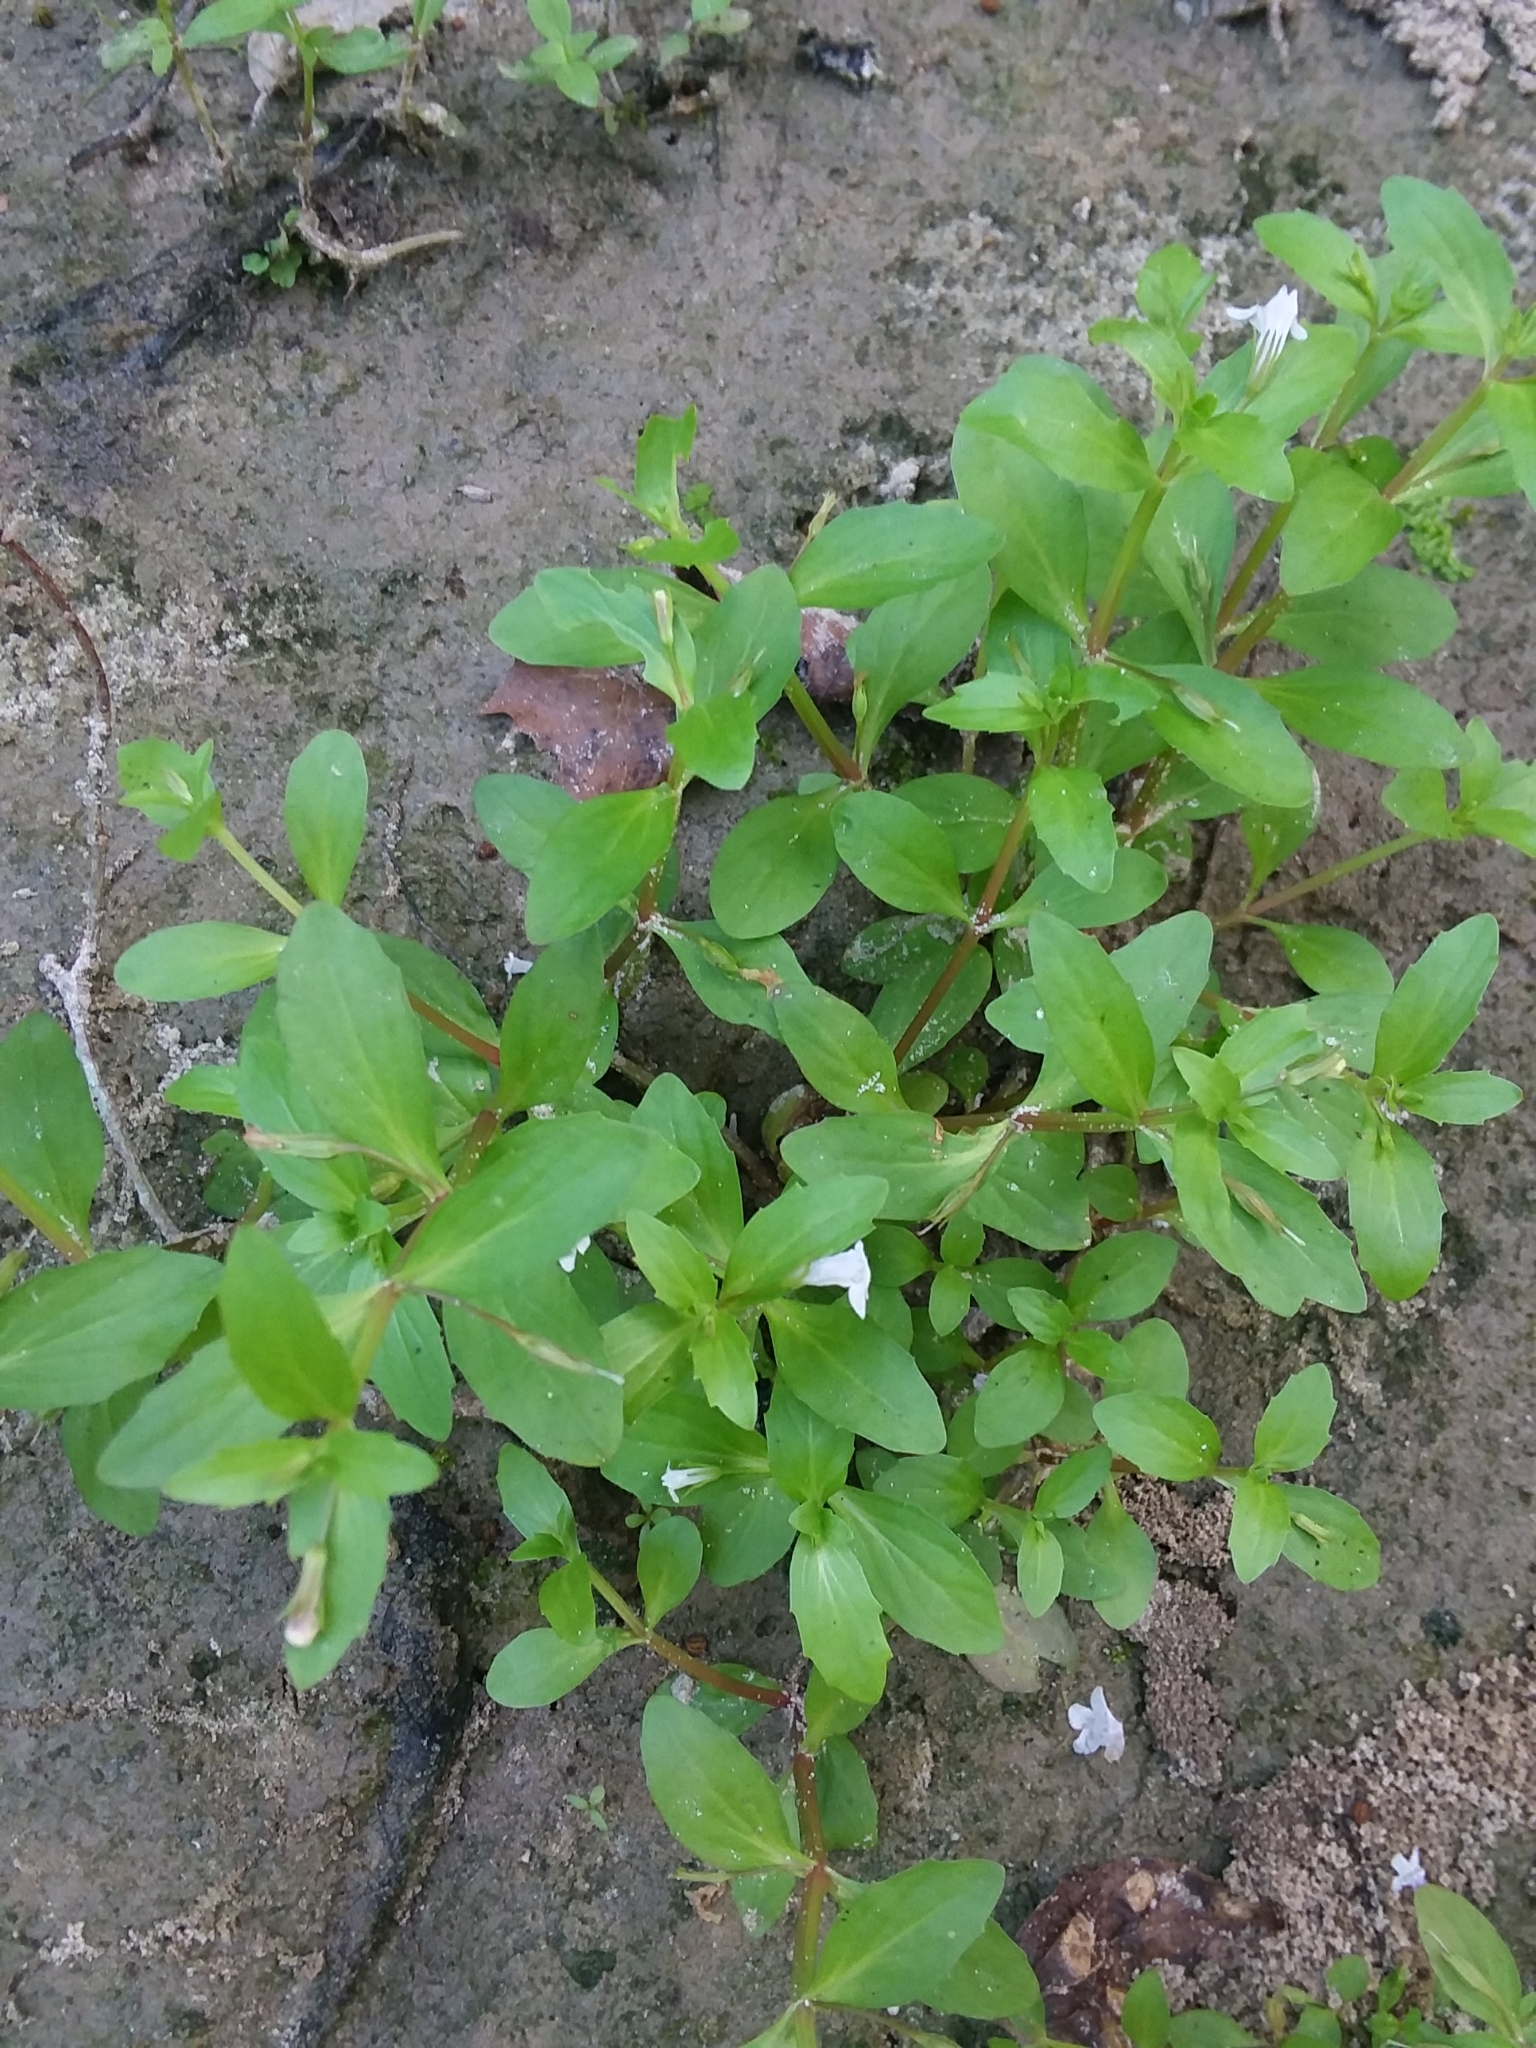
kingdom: Plantae
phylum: Tracheophyta
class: Magnoliopsida
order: Lamiales
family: Linderniaceae
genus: Lindernia
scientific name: Lindernia dubia
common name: Annual false pimpernel
